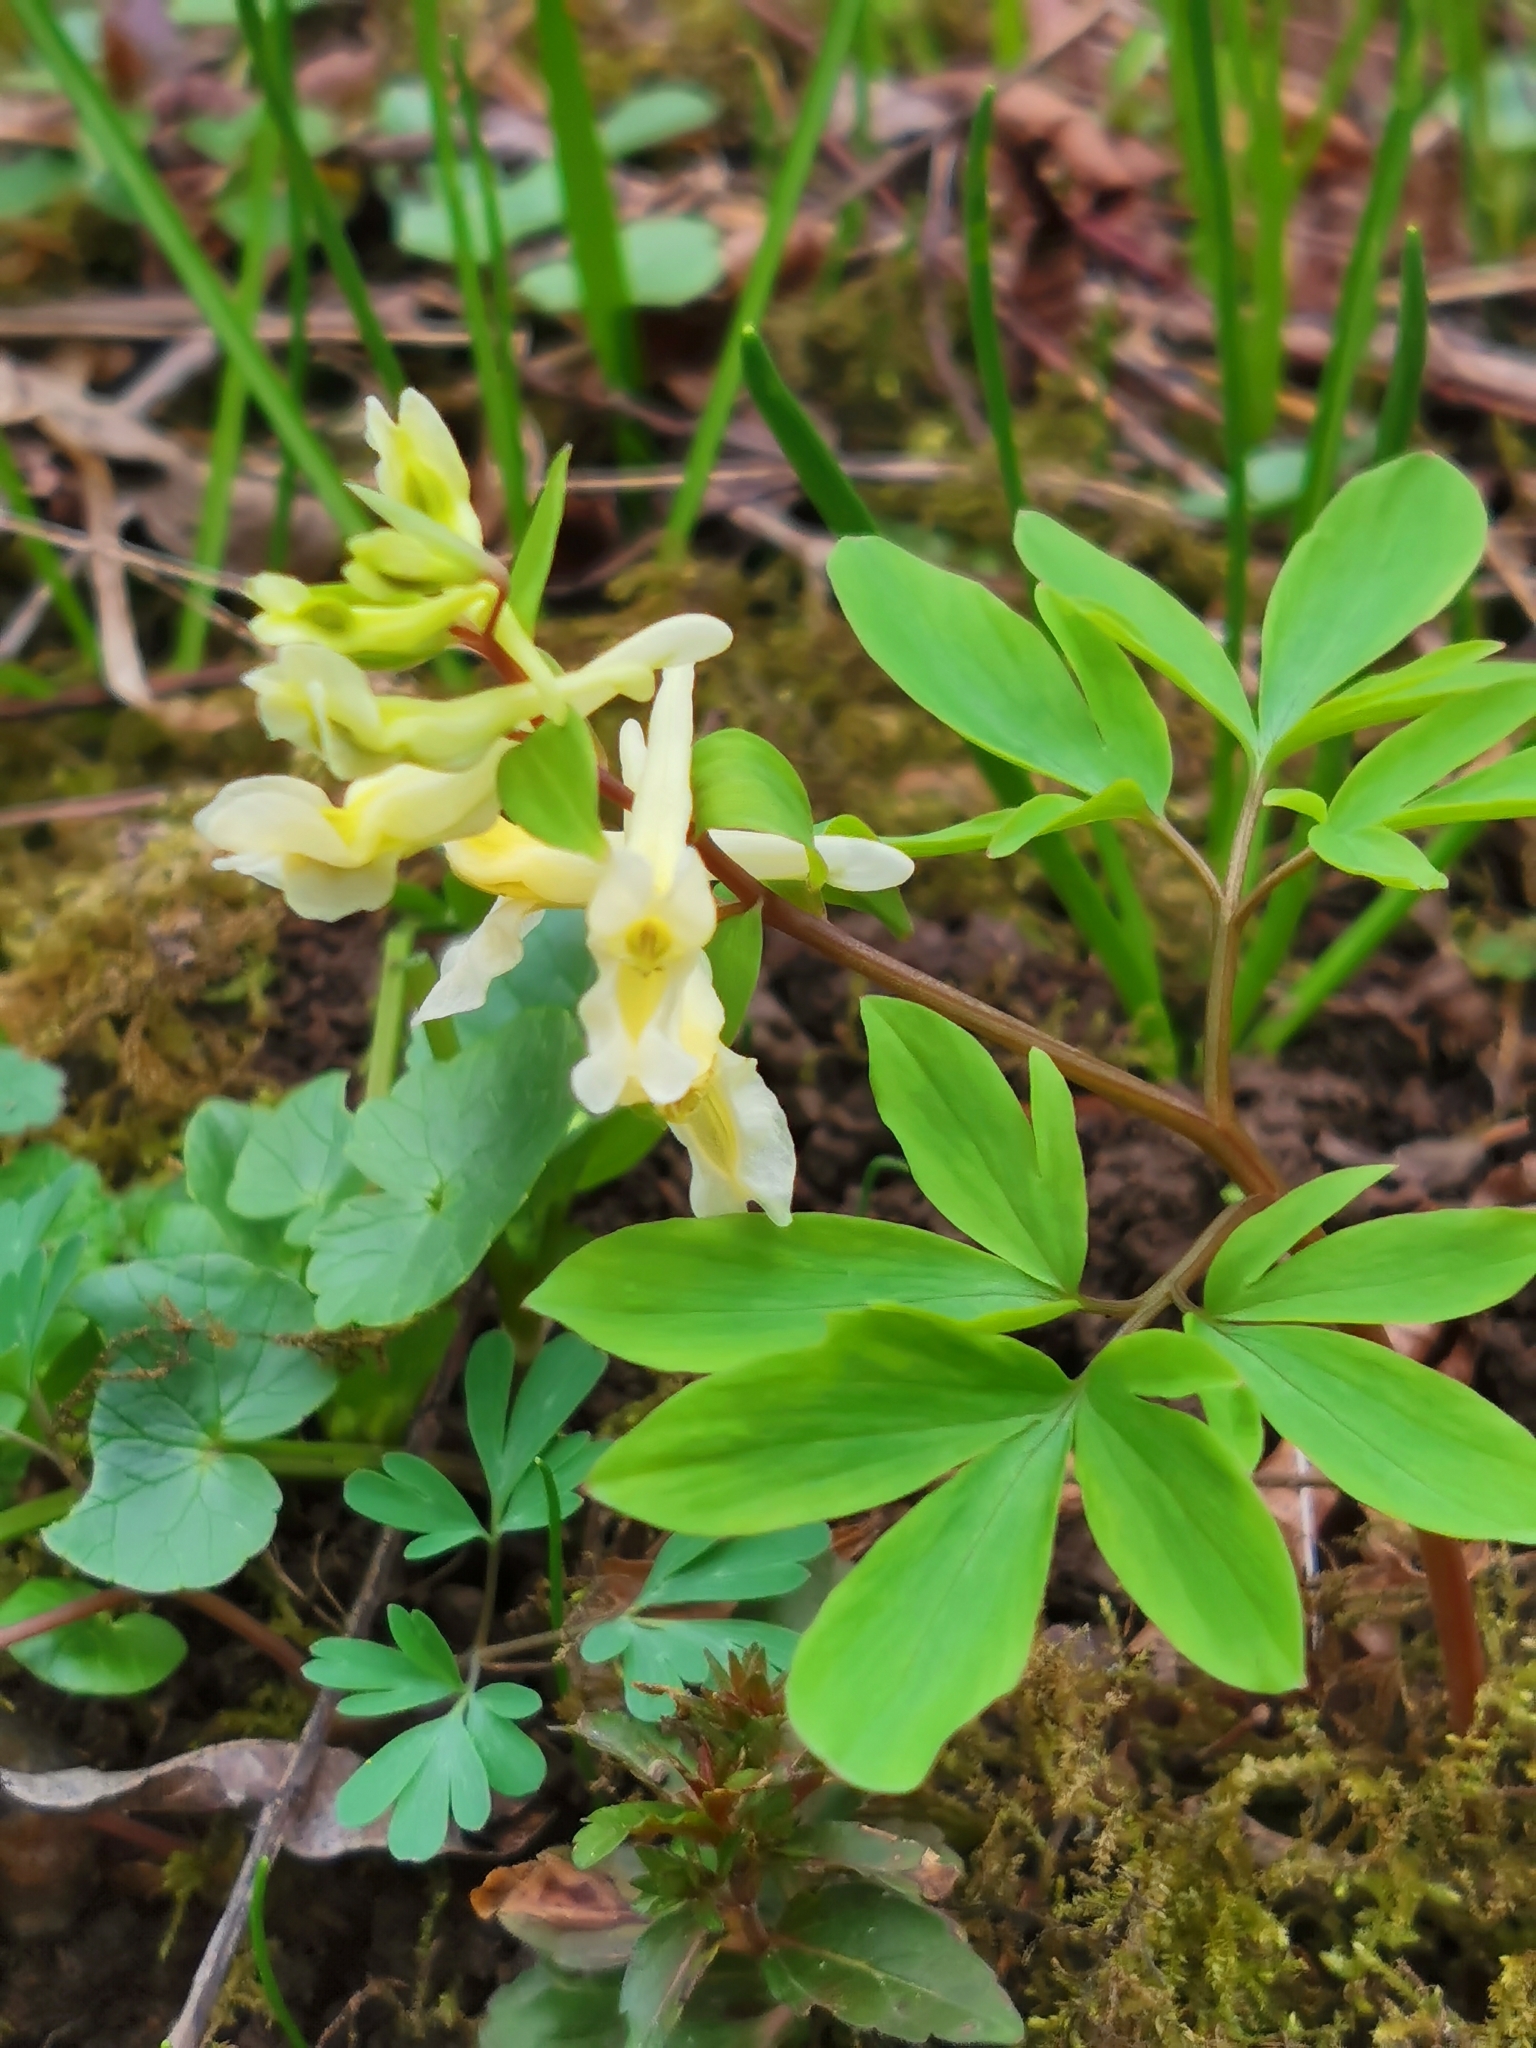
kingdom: Plantae
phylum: Tracheophyta
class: Magnoliopsida
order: Ranunculales
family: Papaveraceae
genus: Corydalis
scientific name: Corydalis cava
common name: Hollowroot
